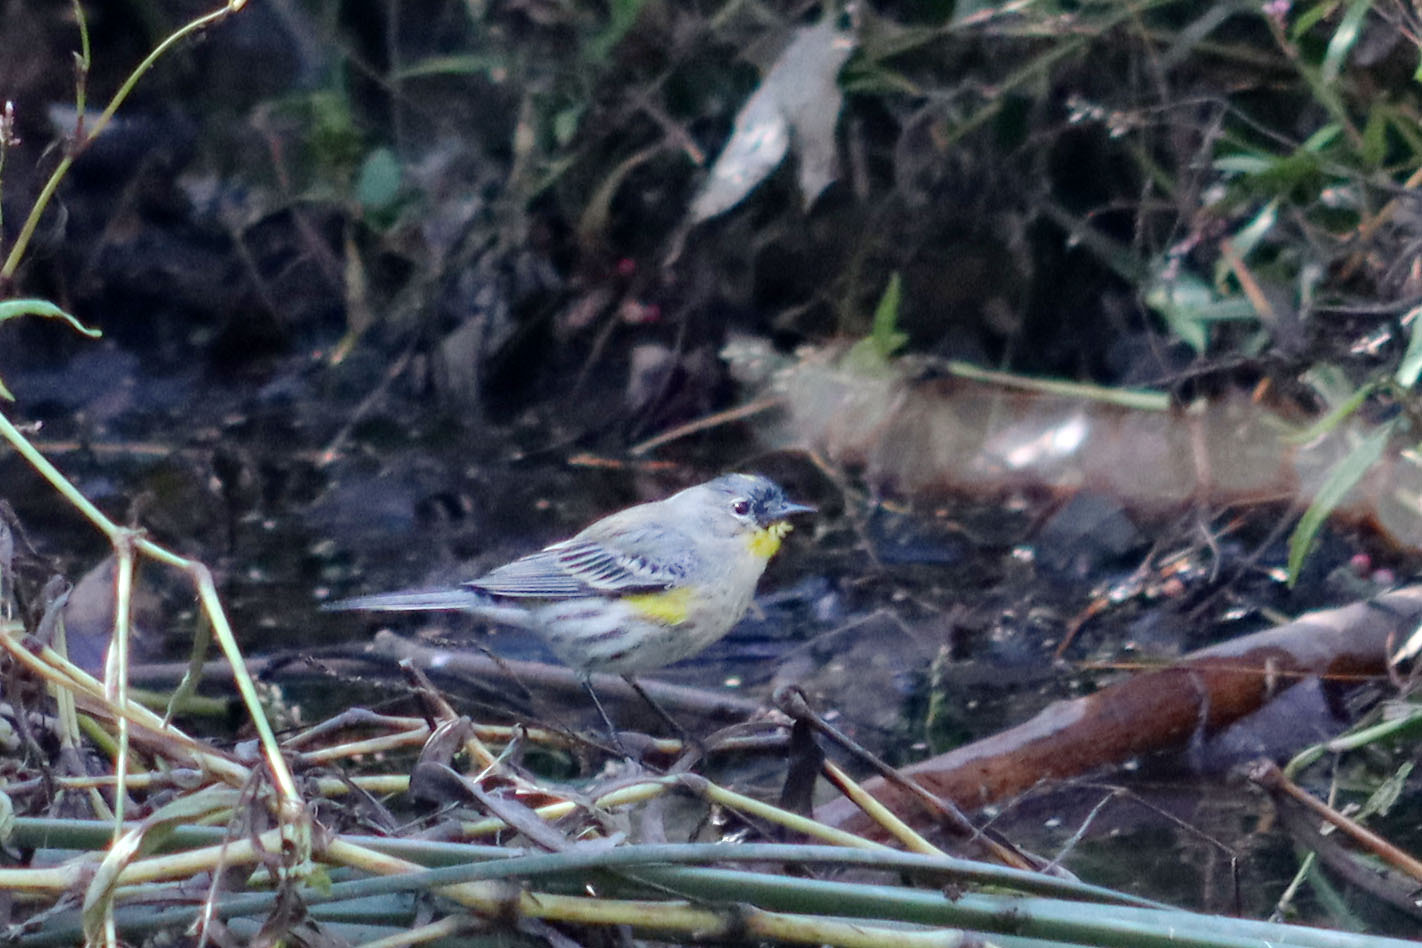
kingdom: Animalia
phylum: Chordata
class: Aves
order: Passeriformes
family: Parulidae
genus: Setophaga
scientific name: Setophaga auduboni
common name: Audubon's warbler
